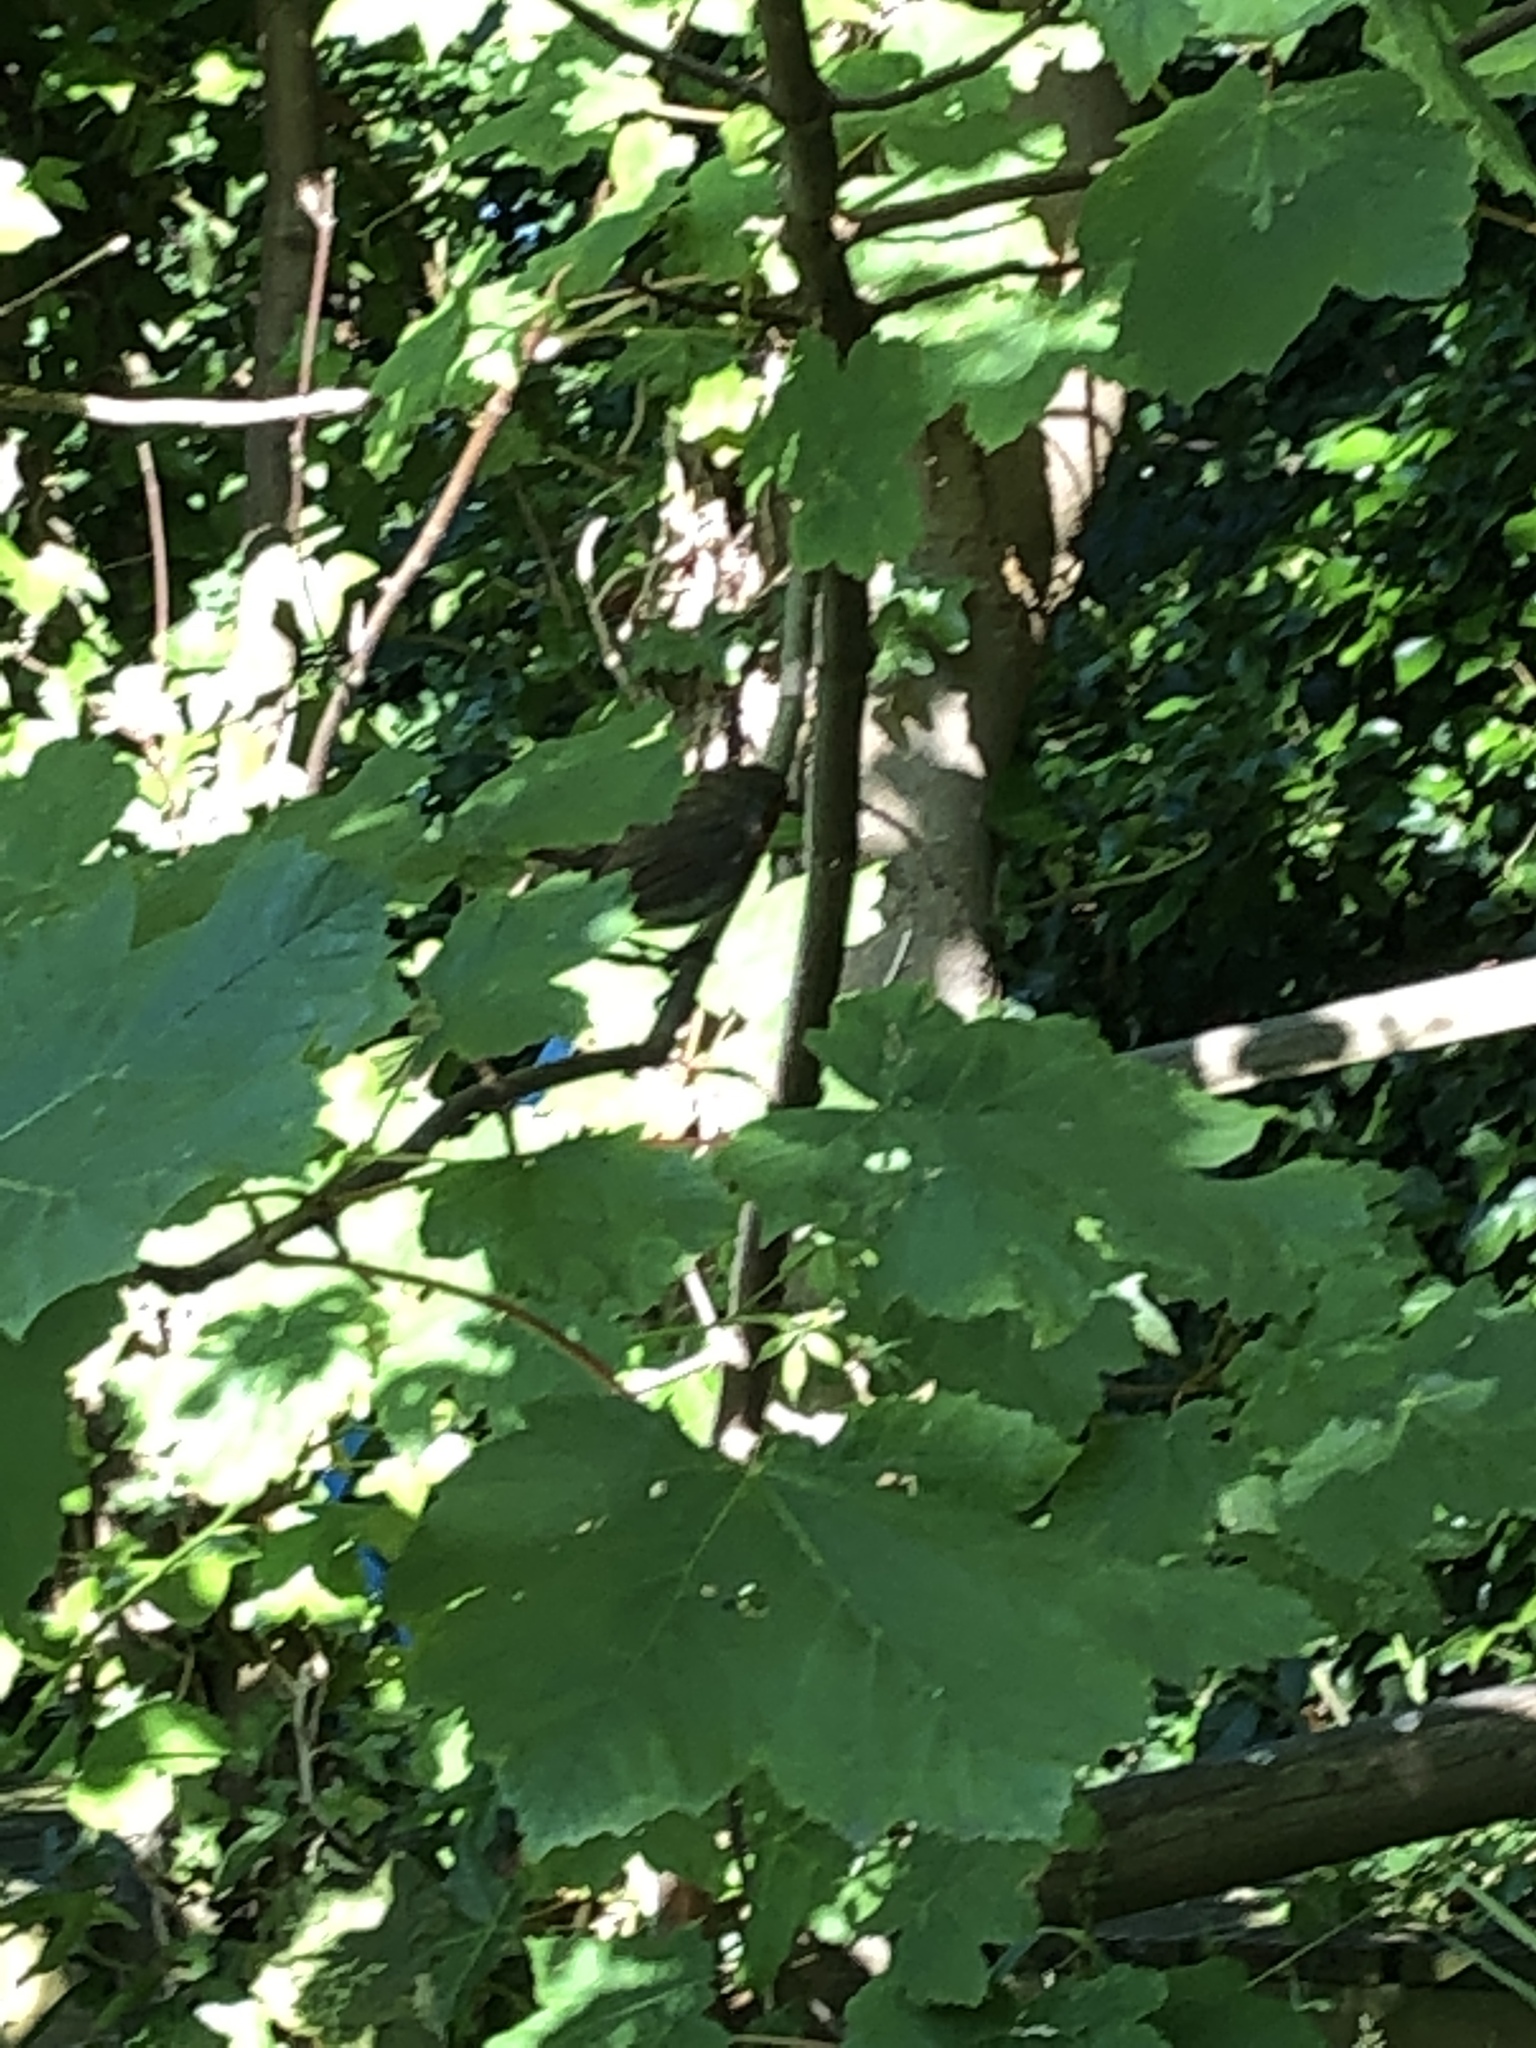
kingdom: Animalia
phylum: Chordata
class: Aves
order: Passeriformes
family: Muscicapidae
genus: Erithacus
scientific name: Erithacus rubecula
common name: European robin
